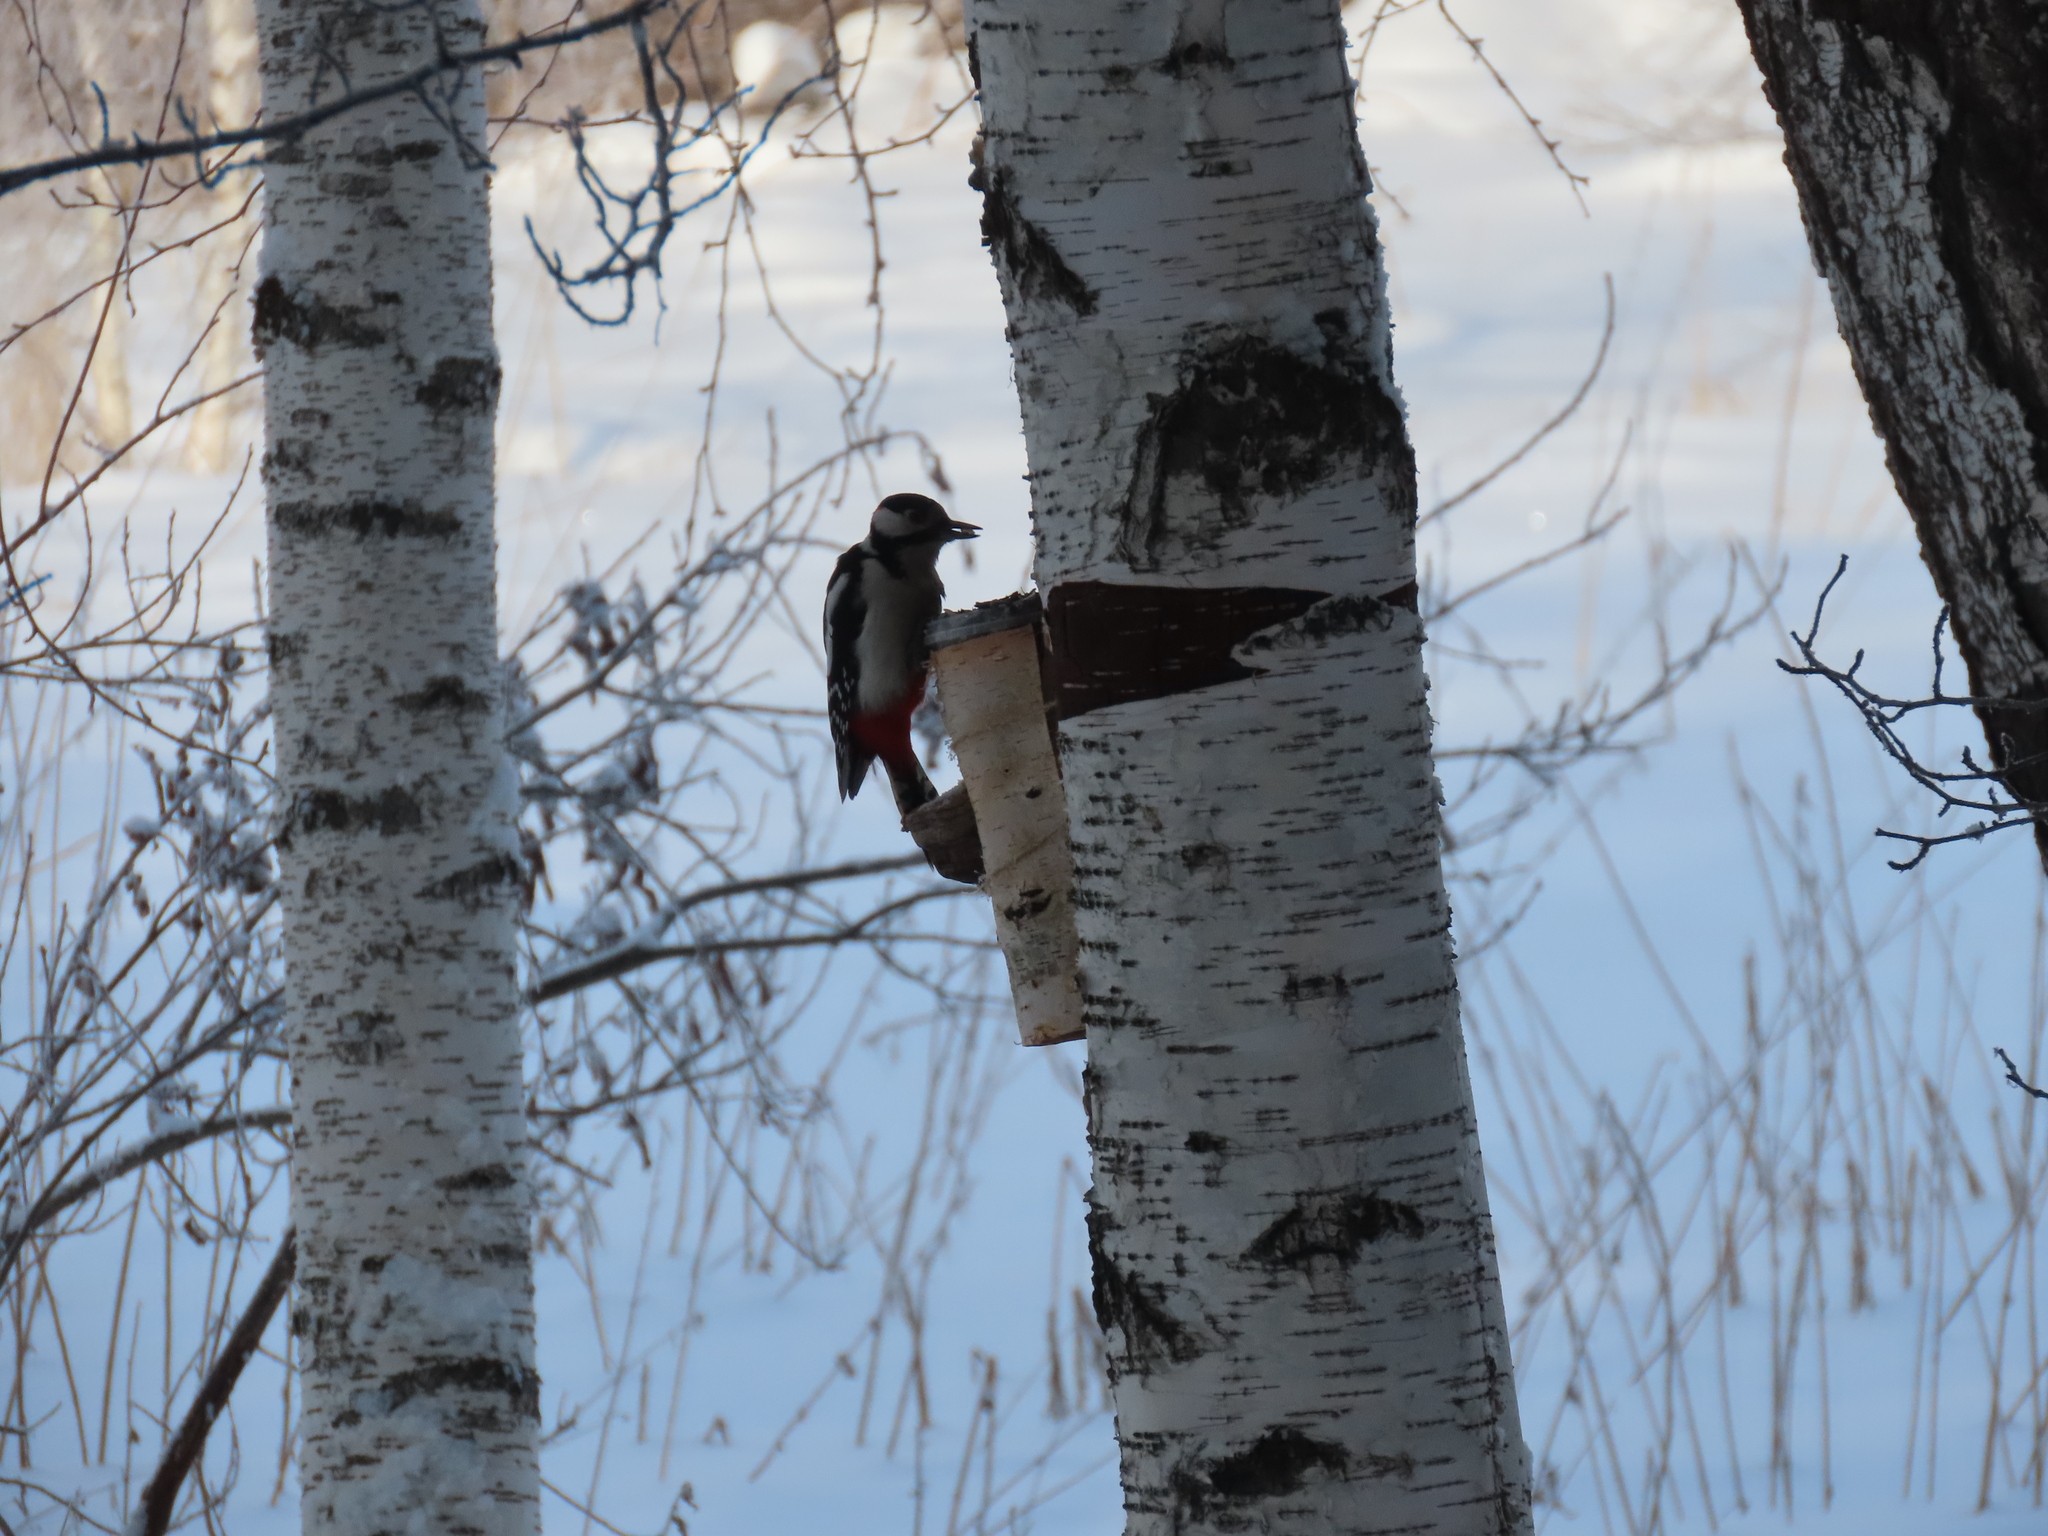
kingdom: Animalia
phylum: Chordata
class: Aves
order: Piciformes
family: Picidae
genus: Dendrocopos
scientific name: Dendrocopos major
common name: Great spotted woodpecker
